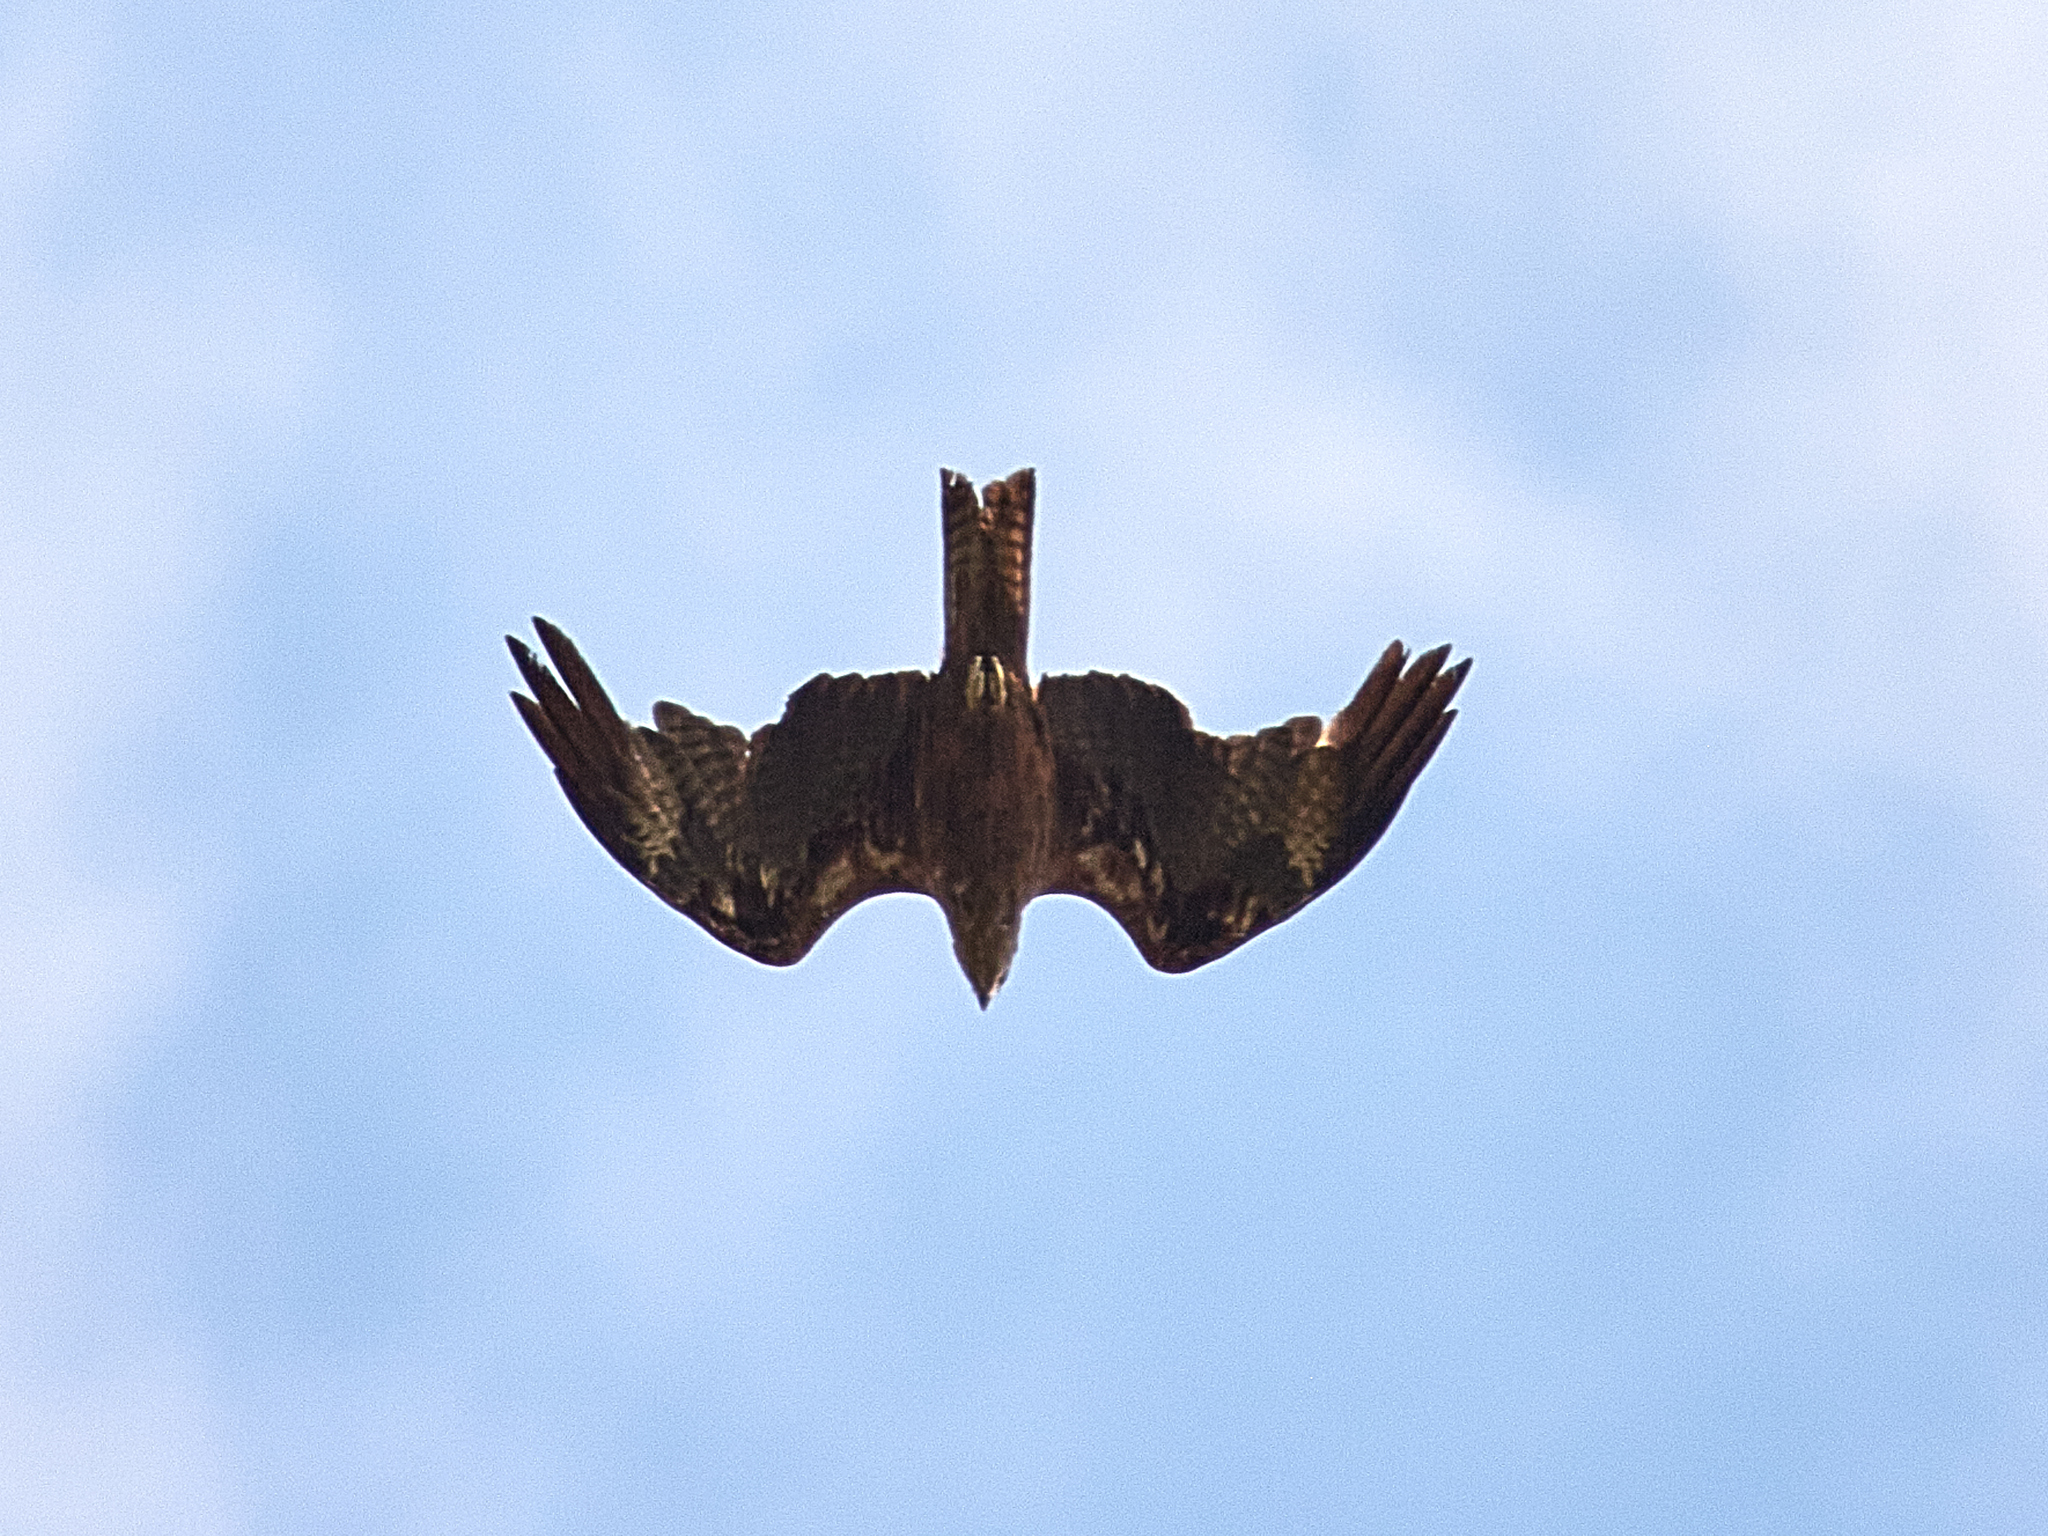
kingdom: Animalia
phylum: Chordata
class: Aves
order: Accipitriformes
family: Accipitridae
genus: Milvus
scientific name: Milvus migrans
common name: Black kite
